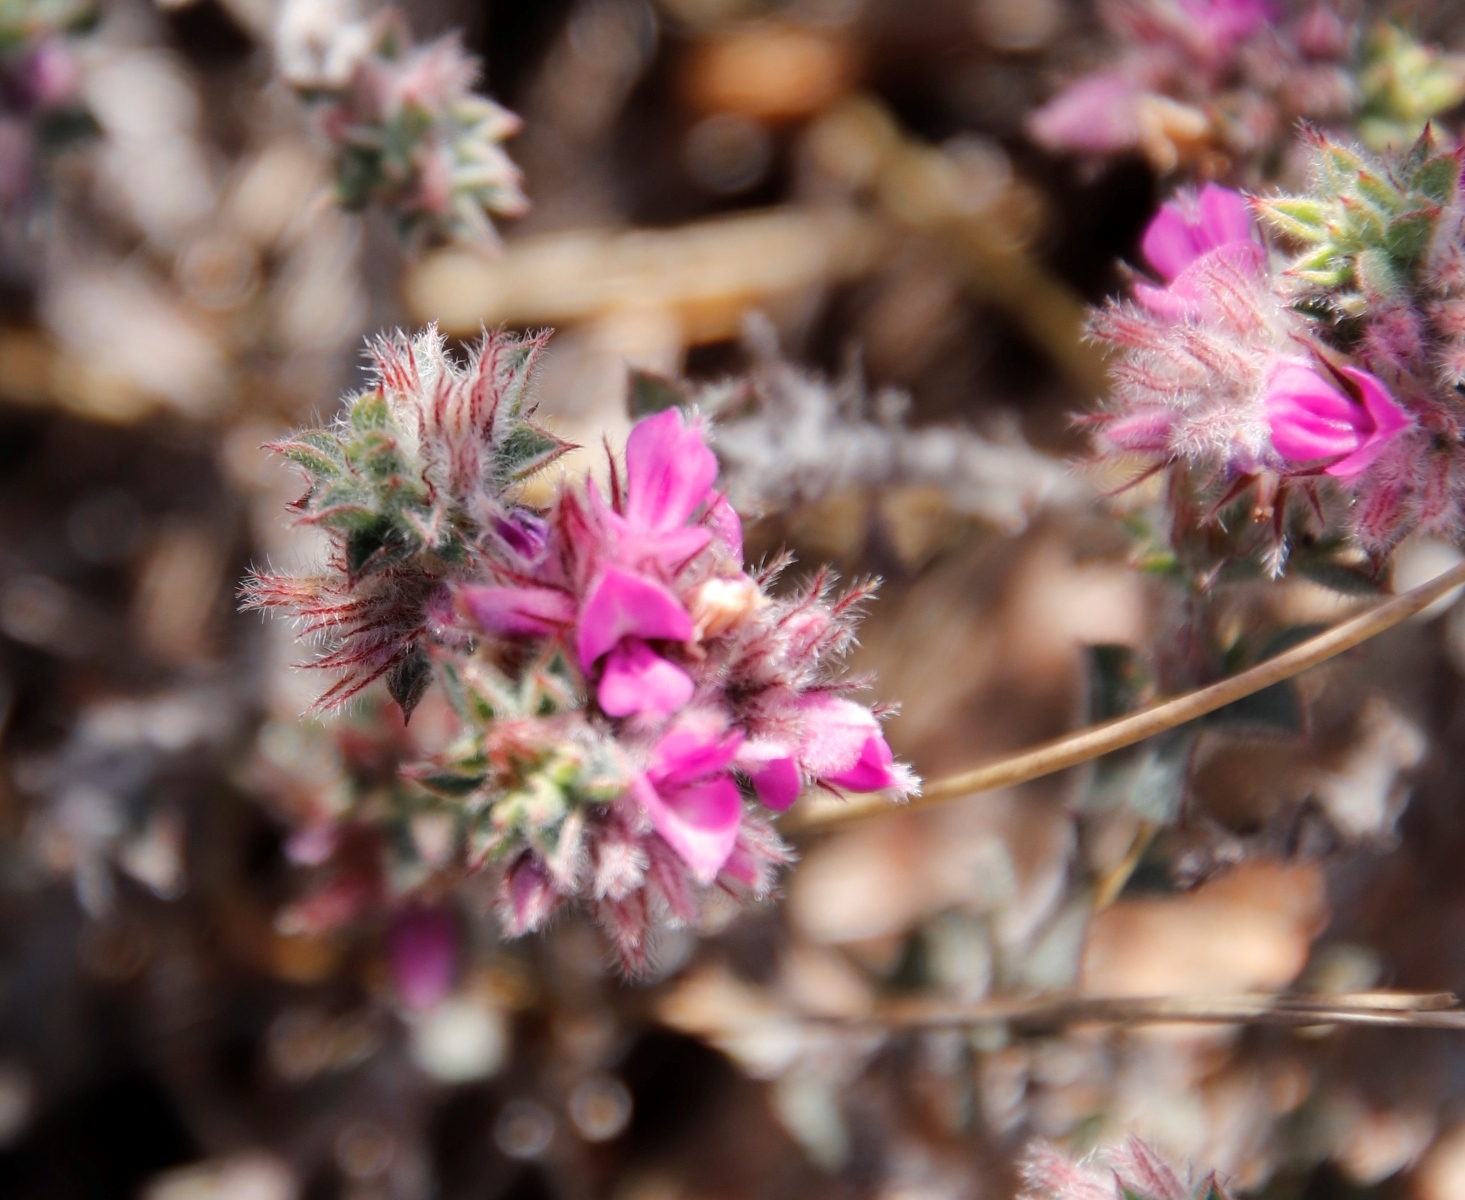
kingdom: Plantae
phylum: Tracheophyta
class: Magnoliopsida
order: Fabales
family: Fabaceae
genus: Indigofera
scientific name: Indigofera
